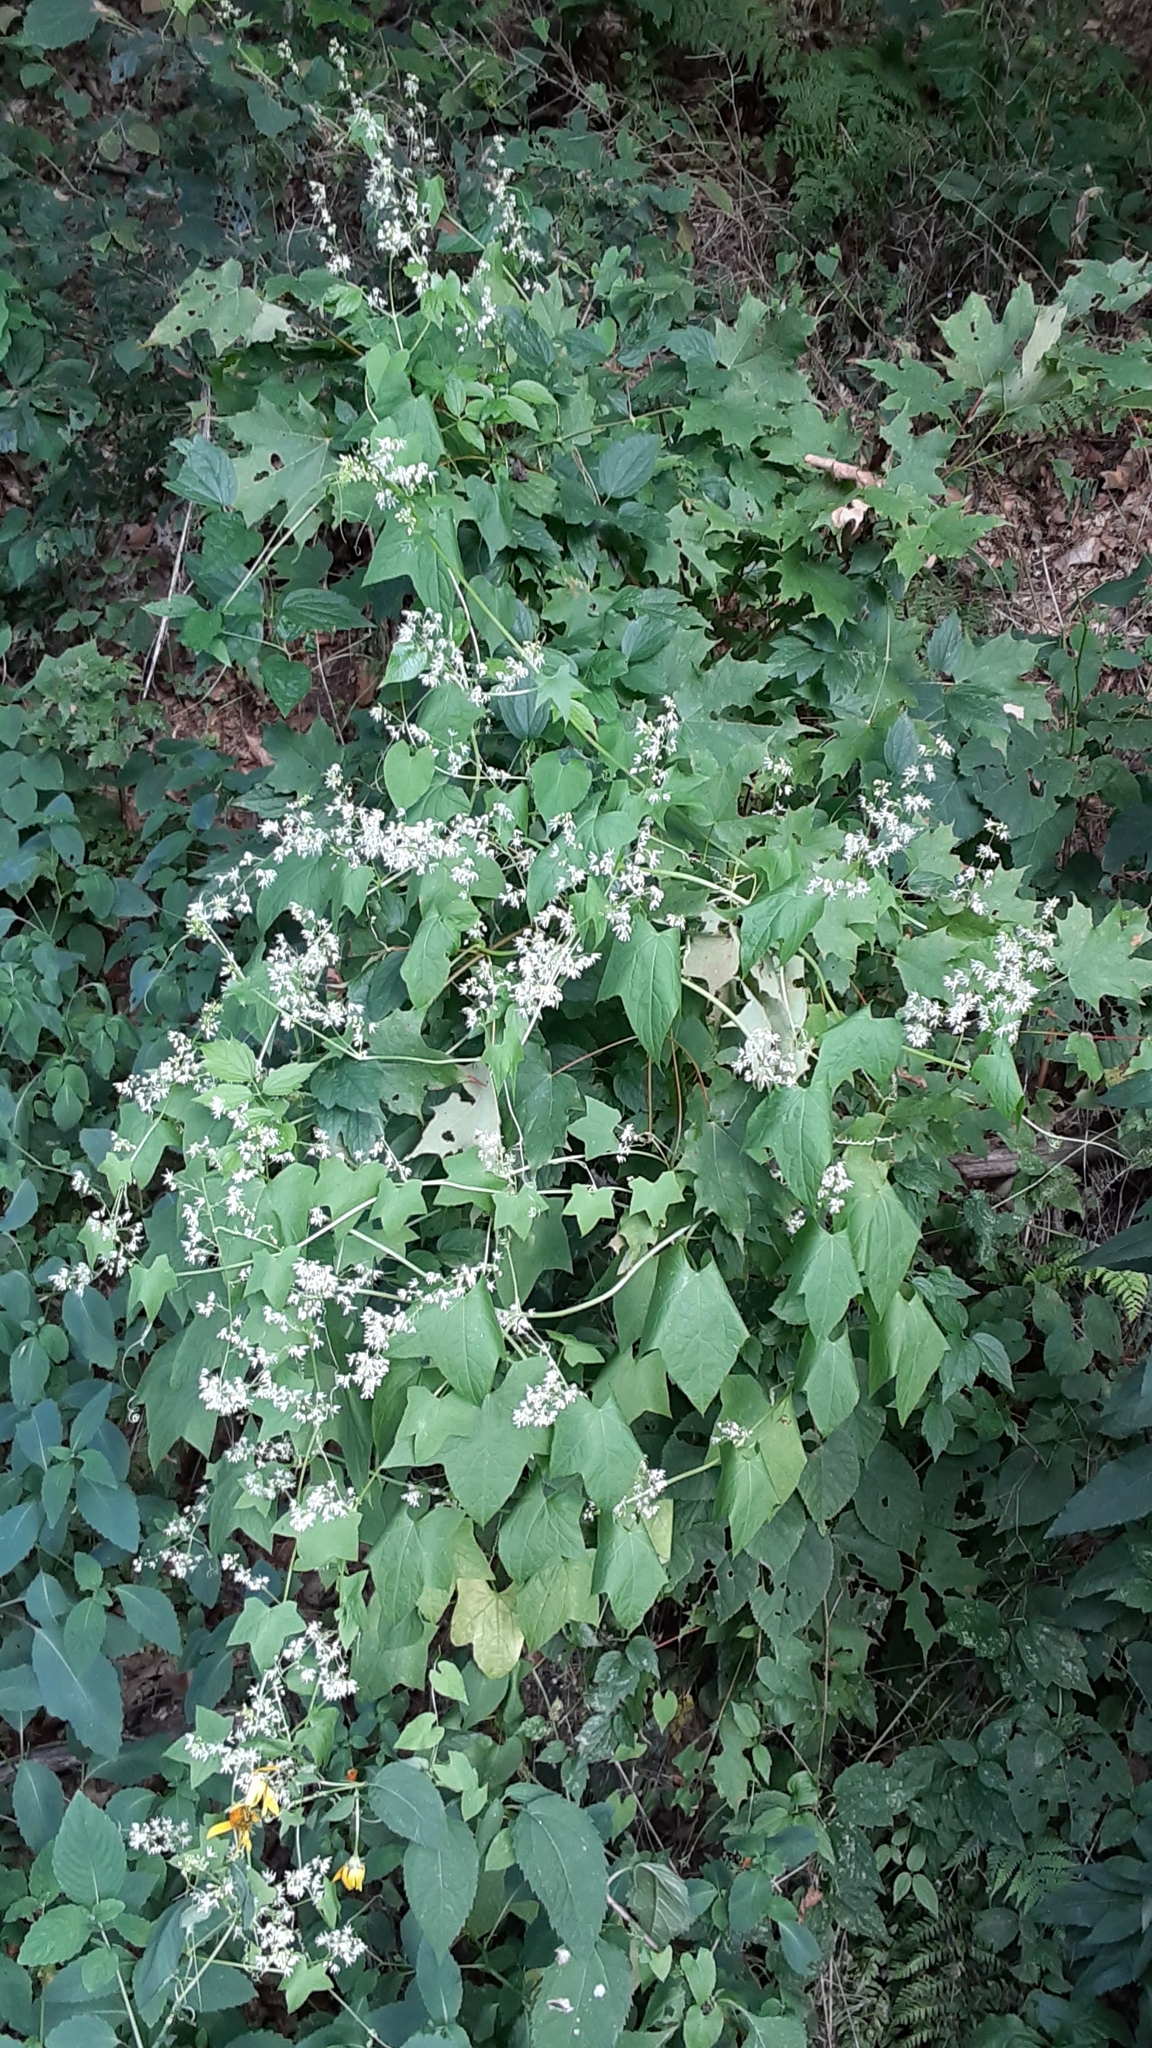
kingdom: Plantae
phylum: Tracheophyta
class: Magnoliopsida
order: Cucurbitales
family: Cucurbitaceae
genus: Echinocystis
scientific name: Echinocystis lobata
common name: Wild cucumber
